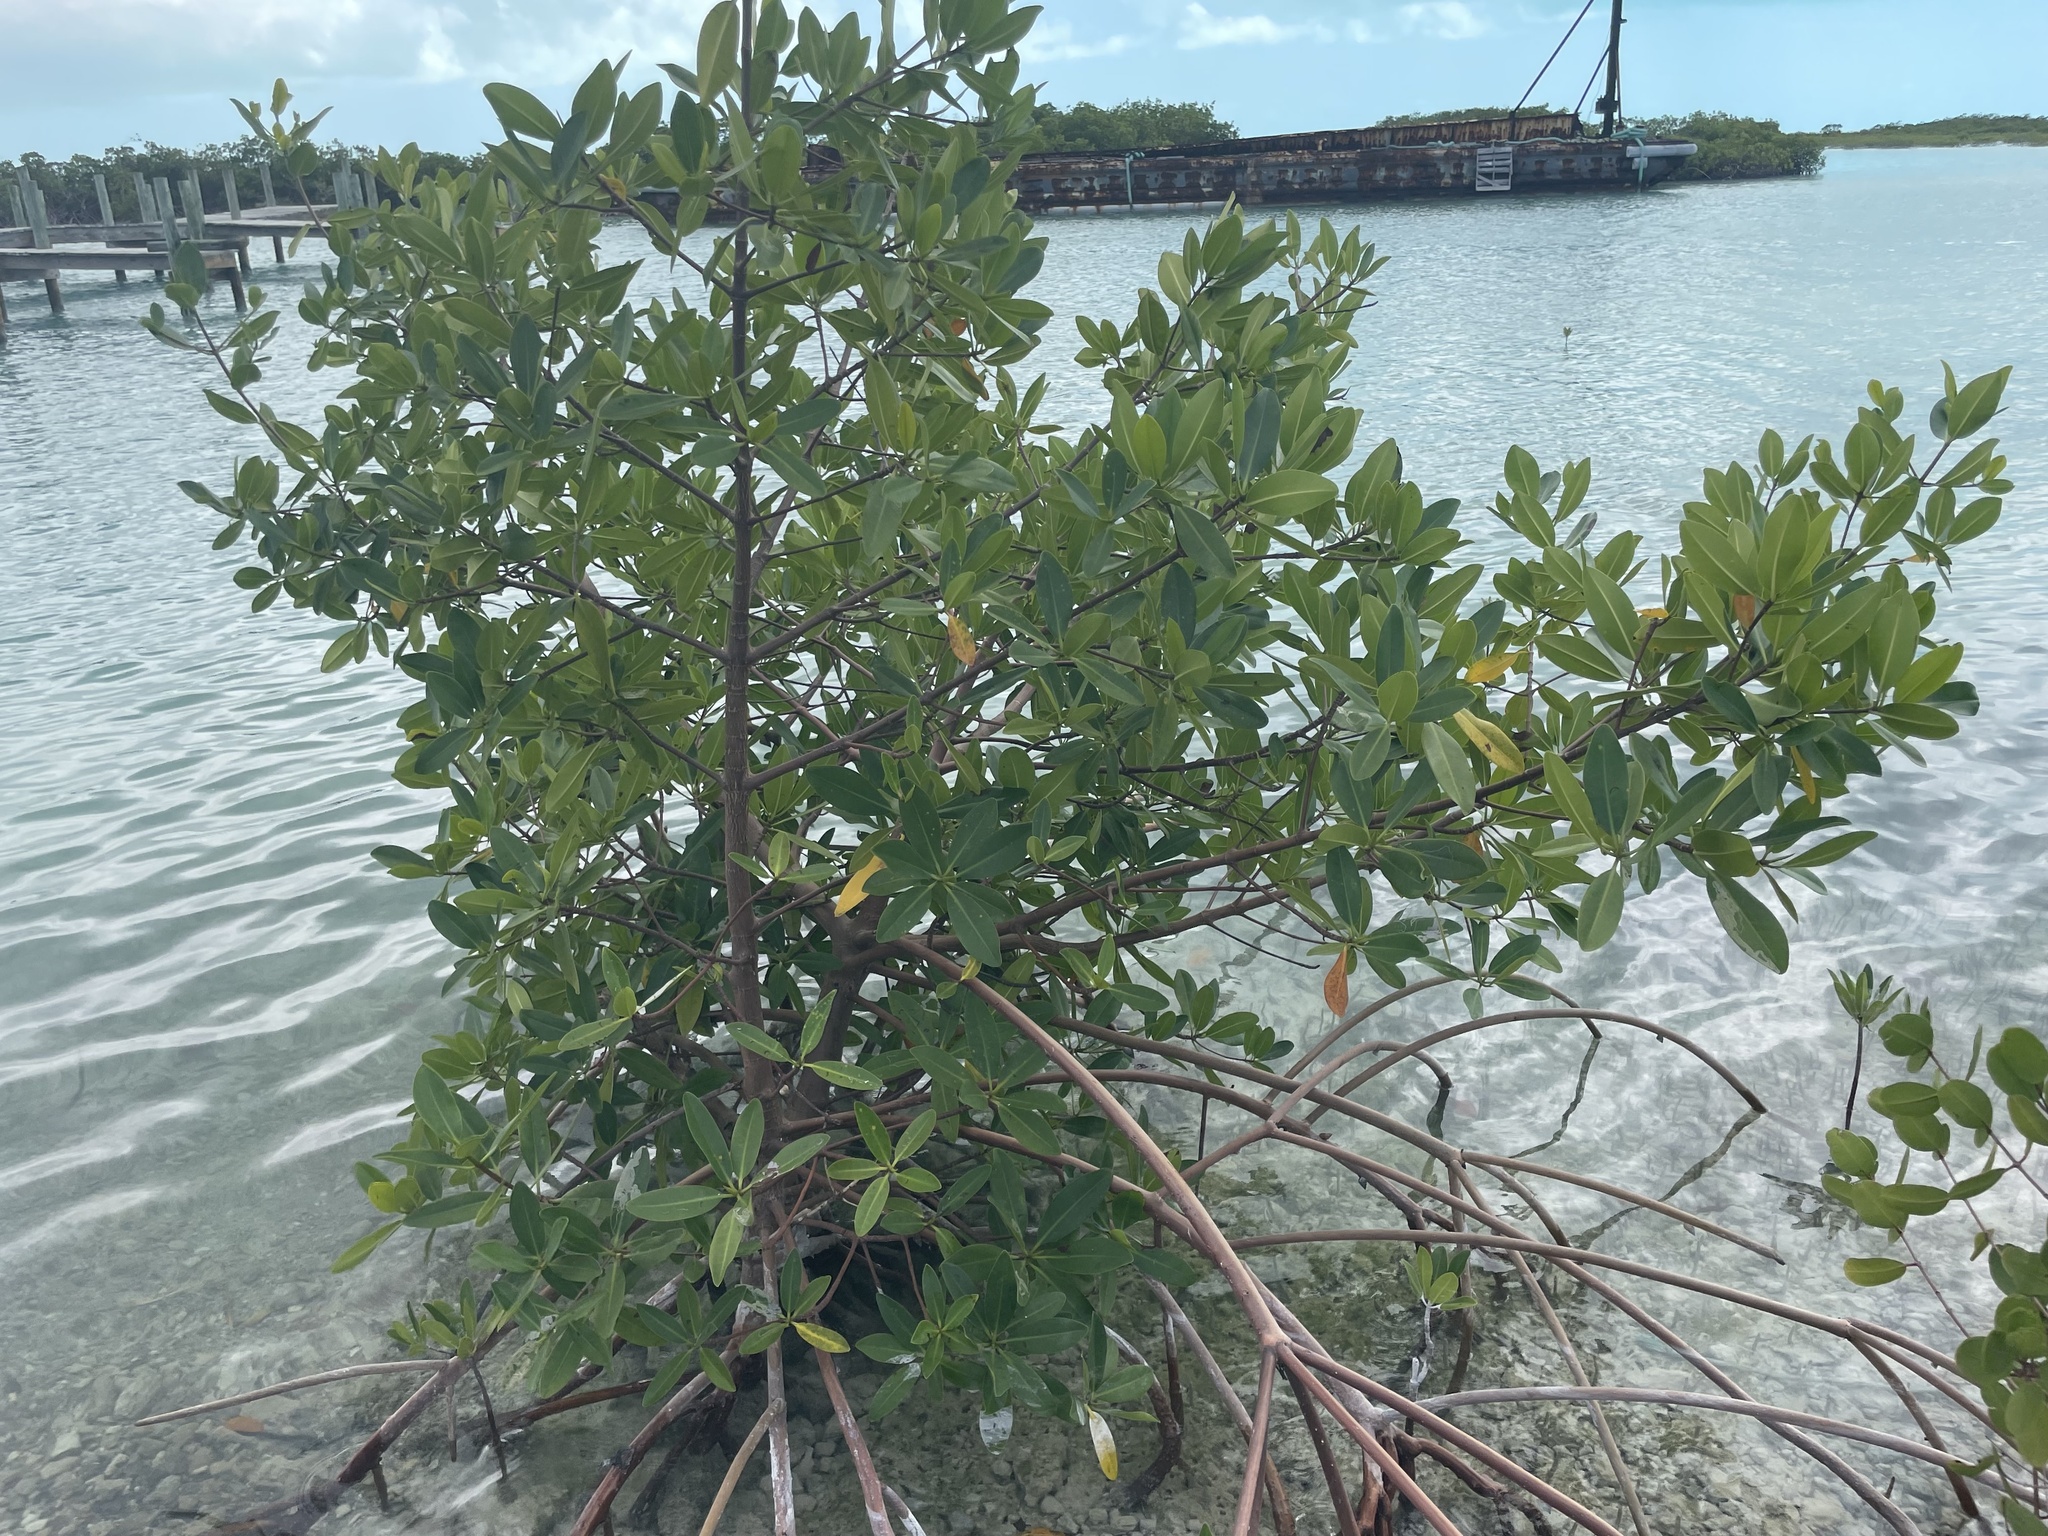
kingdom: Plantae
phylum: Tracheophyta
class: Magnoliopsida
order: Malpighiales
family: Rhizophoraceae
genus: Rhizophora
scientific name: Rhizophora mangle
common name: Red mangrove
